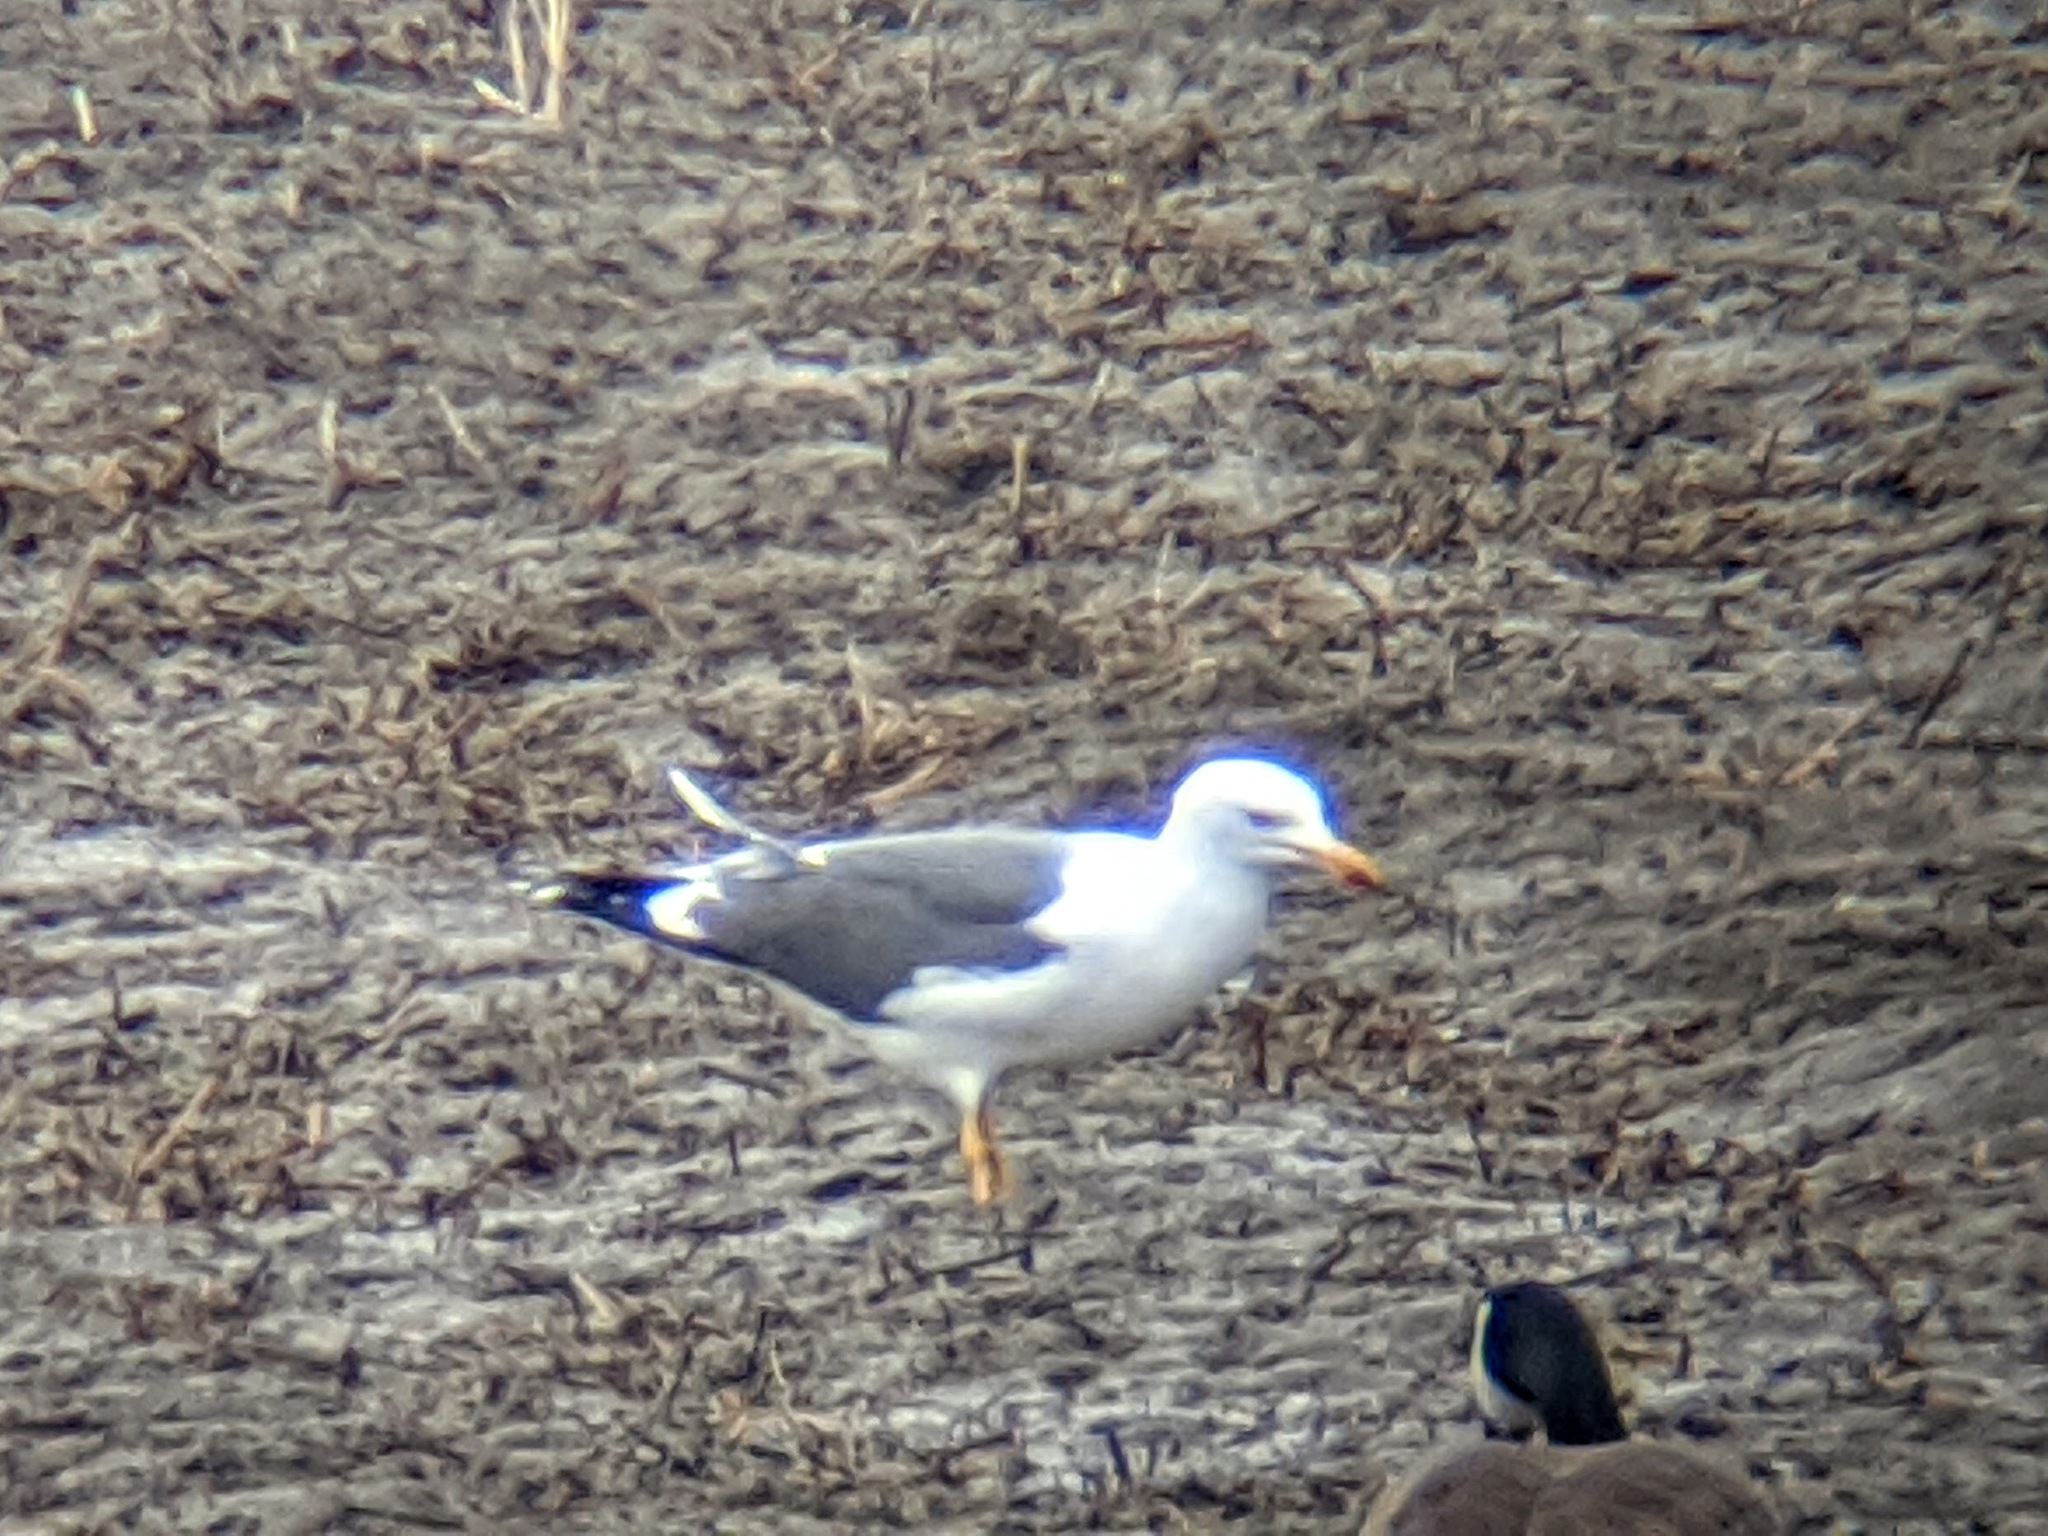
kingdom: Animalia
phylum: Chordata
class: Aves
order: Charadriiformes
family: Laridae
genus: Larus
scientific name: Larus fuscus
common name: Lesser black-backed gull
